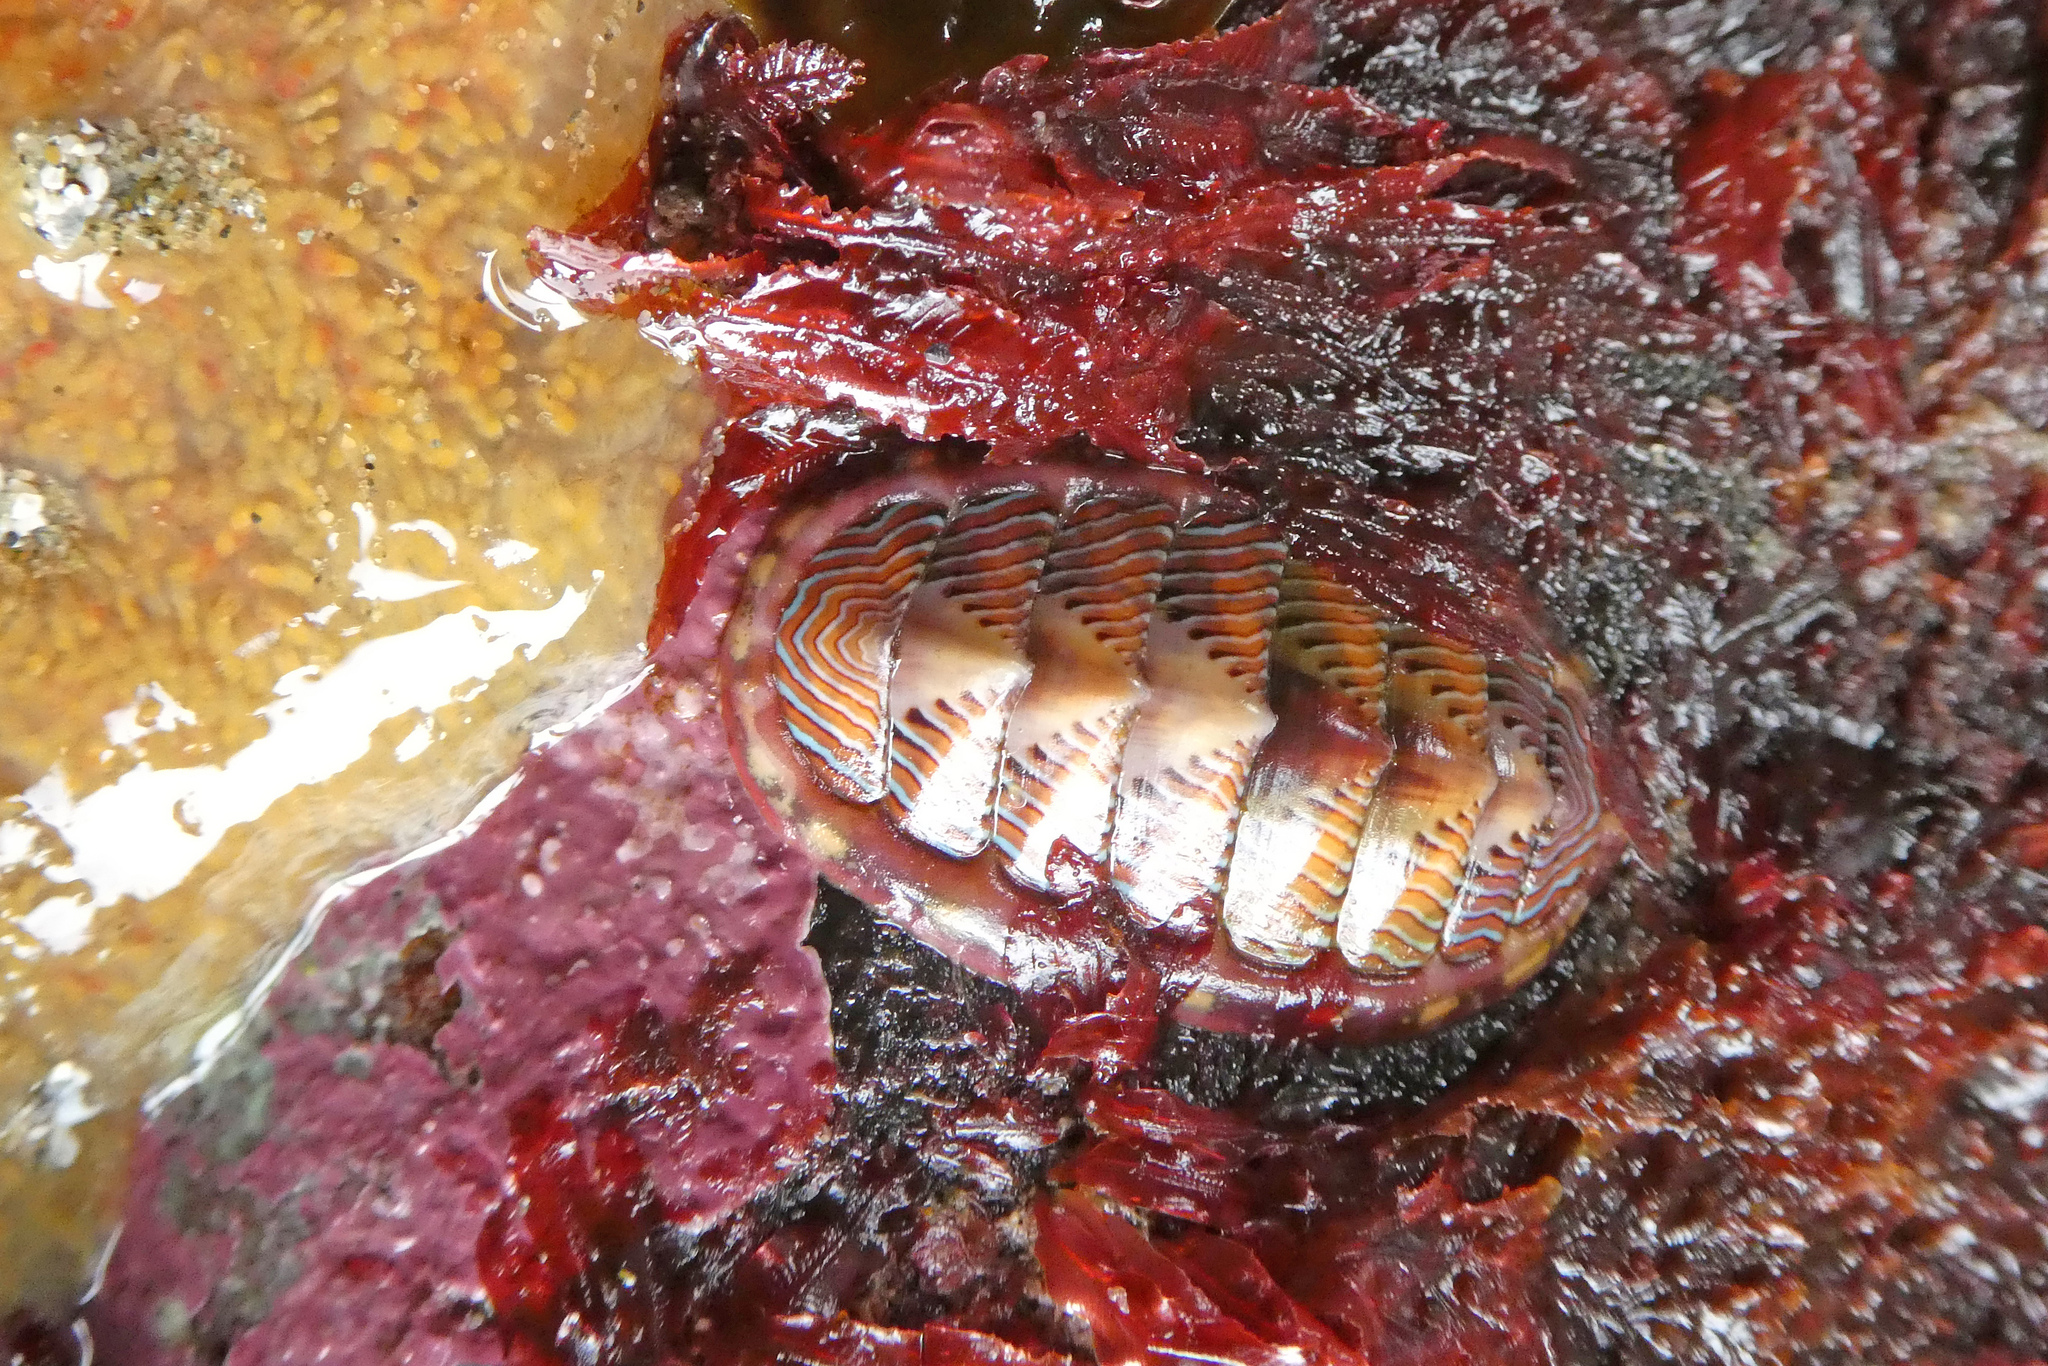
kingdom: Animalia
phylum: Mollusca
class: Polyplacophora
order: Chitonida
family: Tonicellidae
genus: Tonicella
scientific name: Tonicella lineata
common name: Lined chiton
